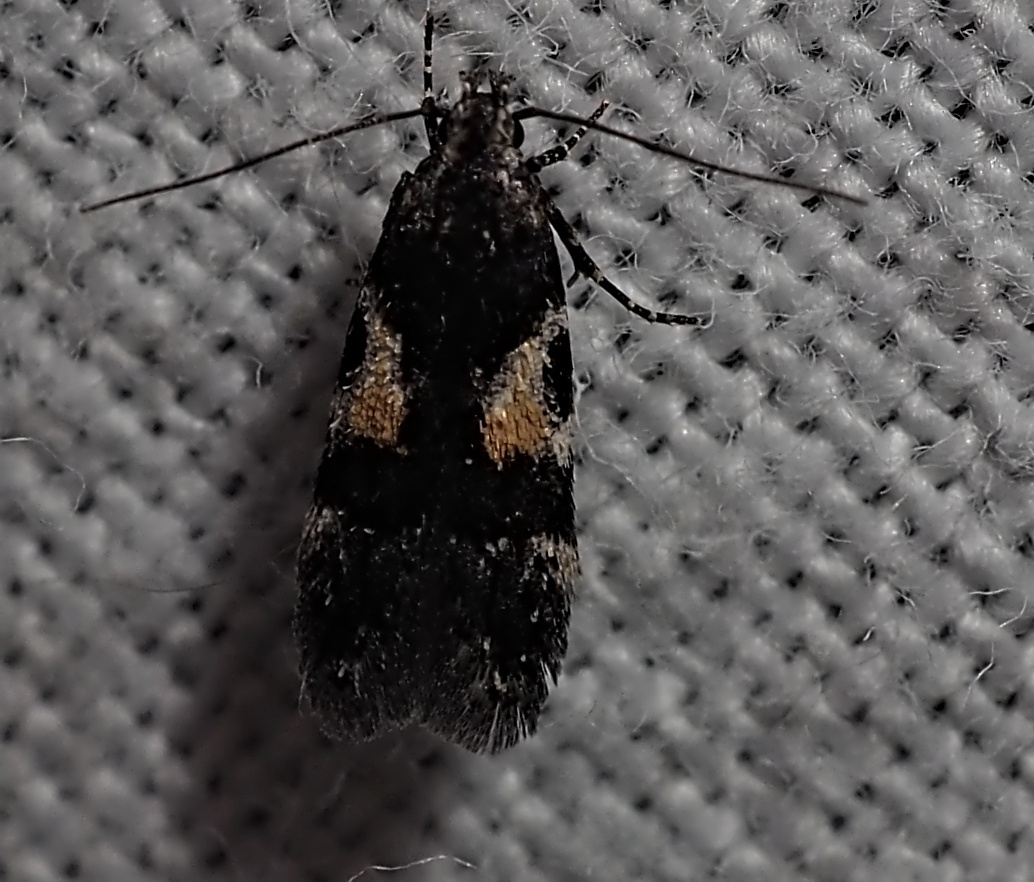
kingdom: Animalia
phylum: Arthropoda
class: Insecta
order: Lepidoptera
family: Gelechiidae
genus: Teleiodes
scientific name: Teleiodes luculella
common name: Crescent groundling
